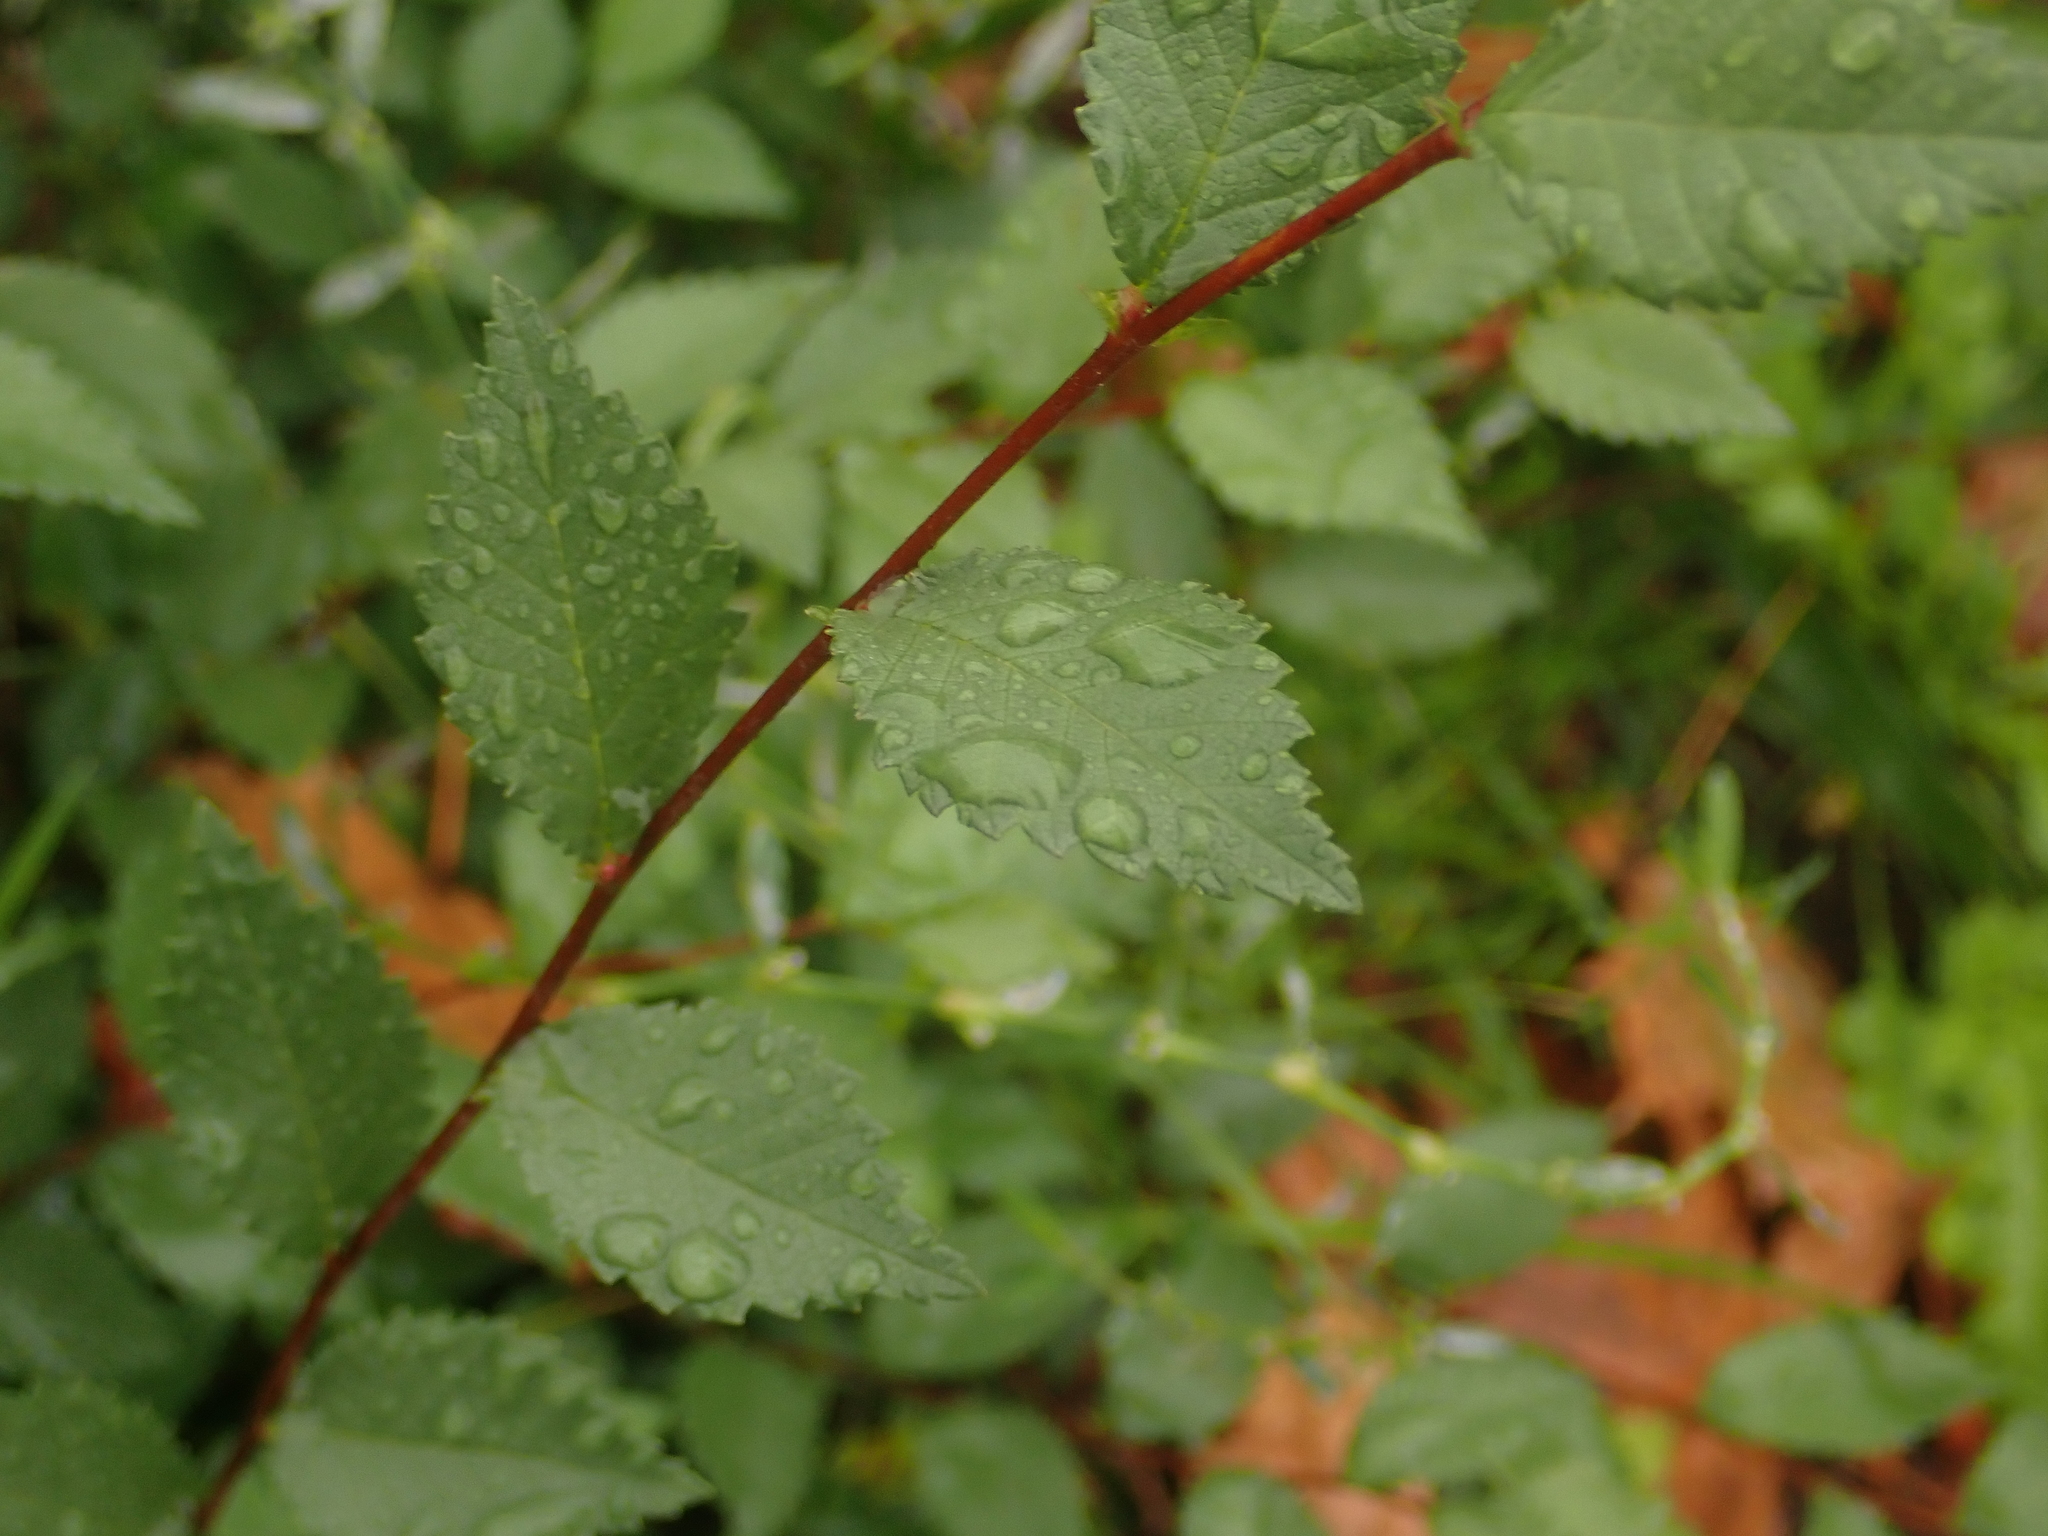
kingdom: Plantae
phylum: Tracheophyta
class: Magnoliopsida
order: Rosales
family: Ulmaceae
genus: Ulmus
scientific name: Ulmus minor
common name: Small-leaved elm
